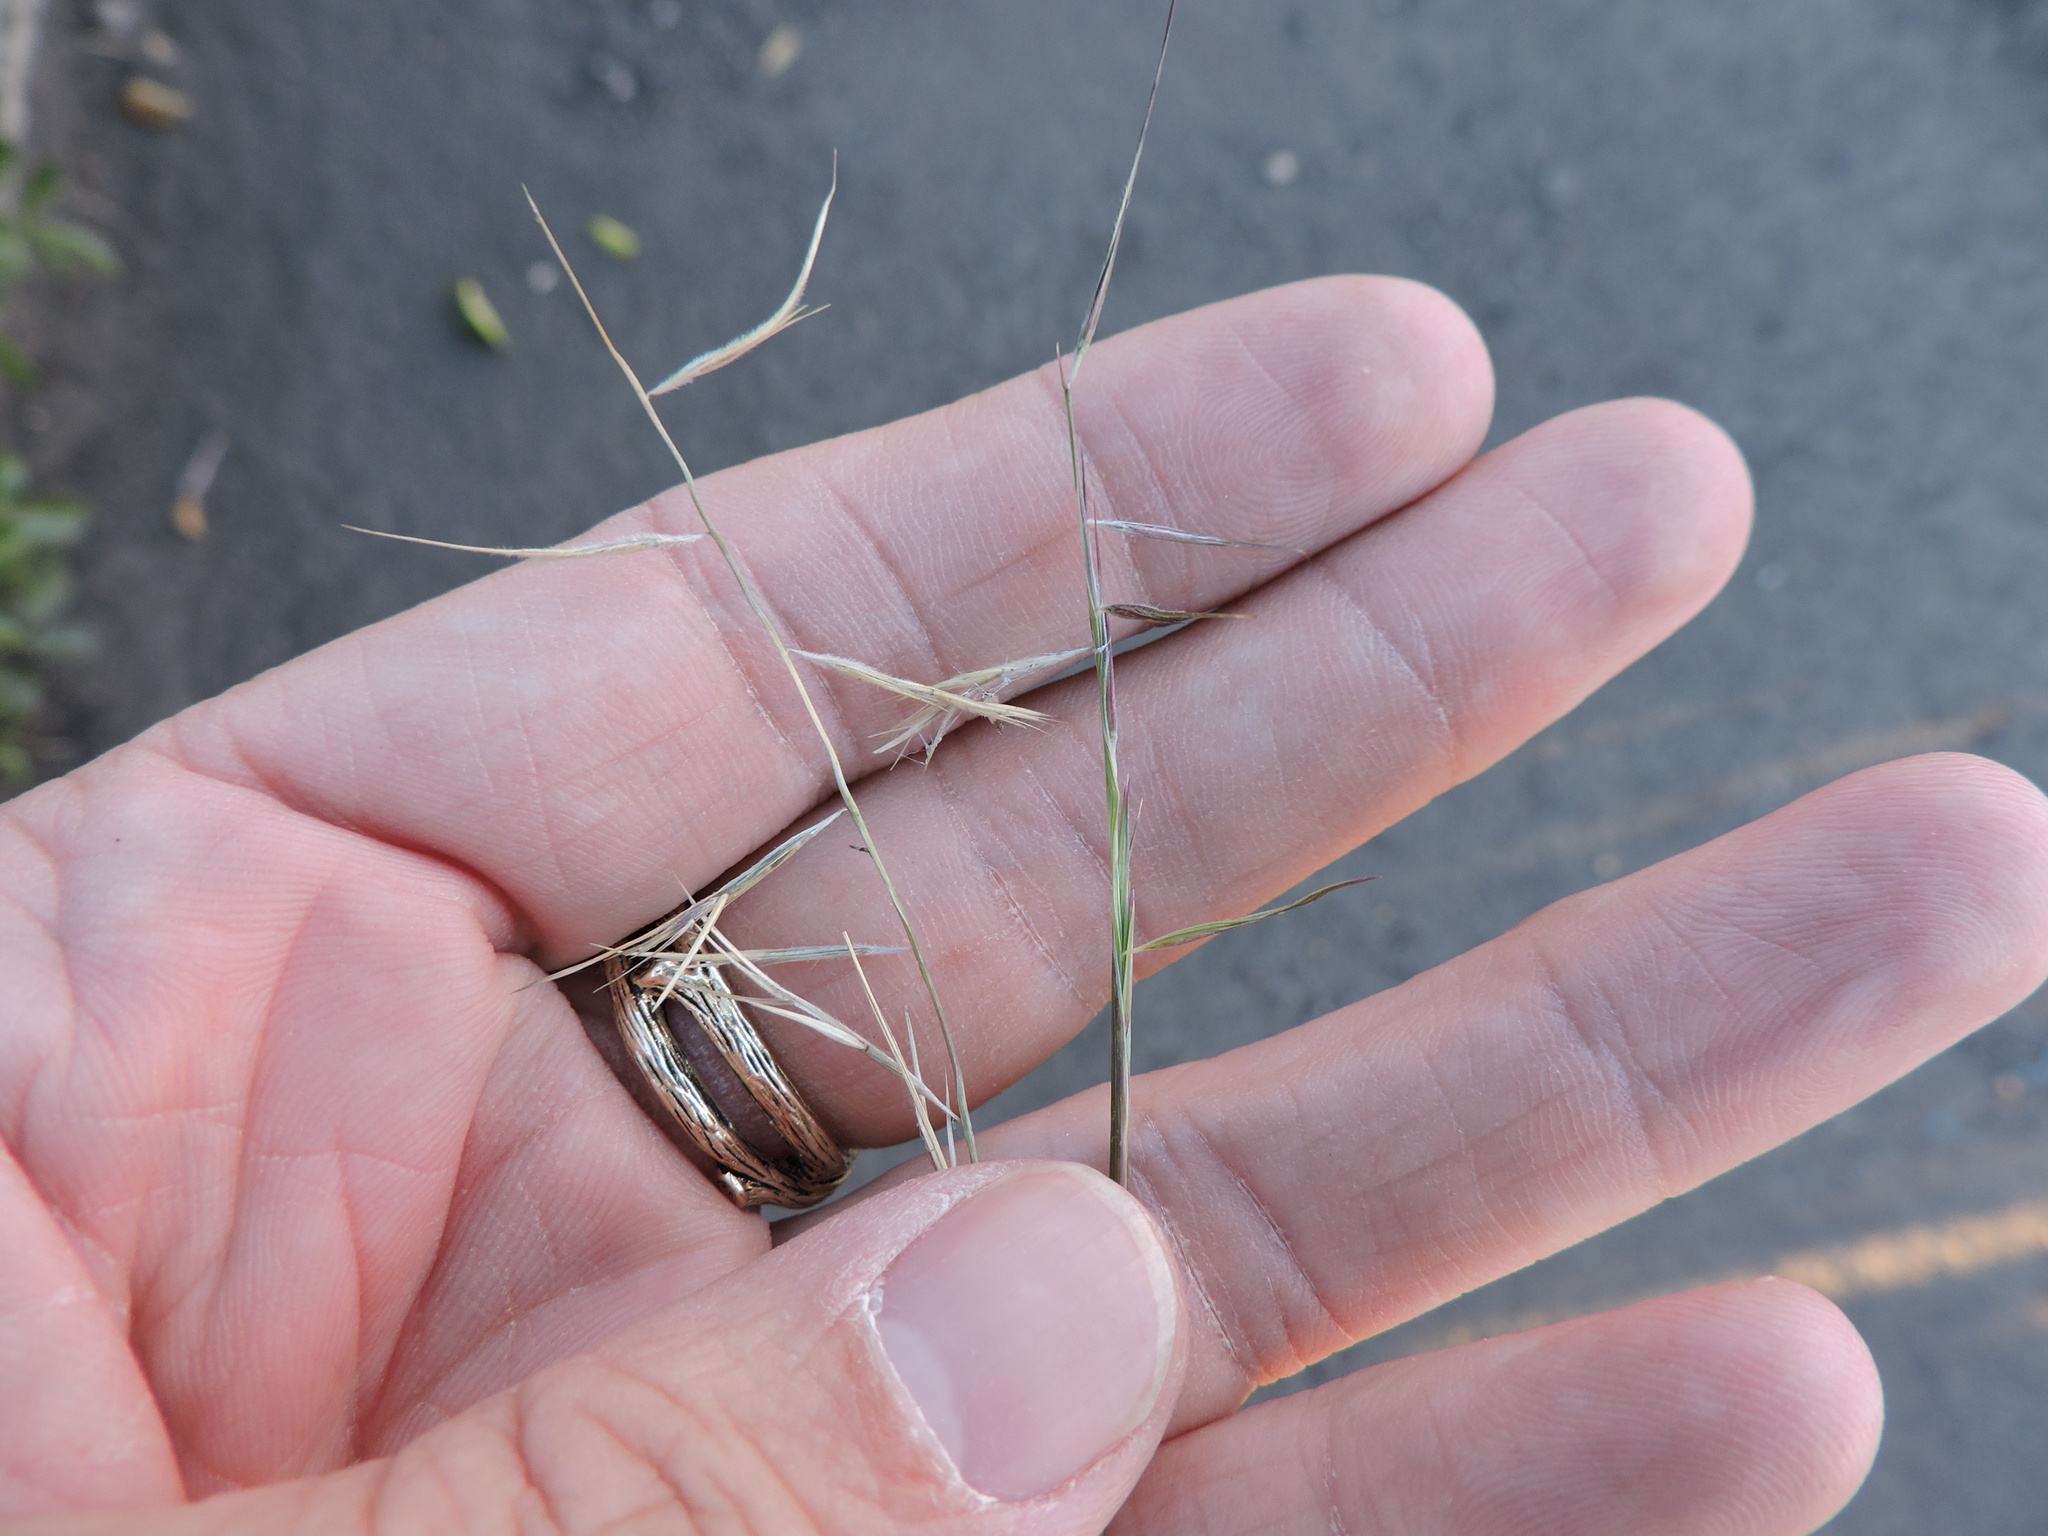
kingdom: Plantae
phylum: Tracheophyta
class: Liliopsida
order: Poales
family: Poaceae
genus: Bouteloua
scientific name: Bouteloua aristidoides
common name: Needle grama
